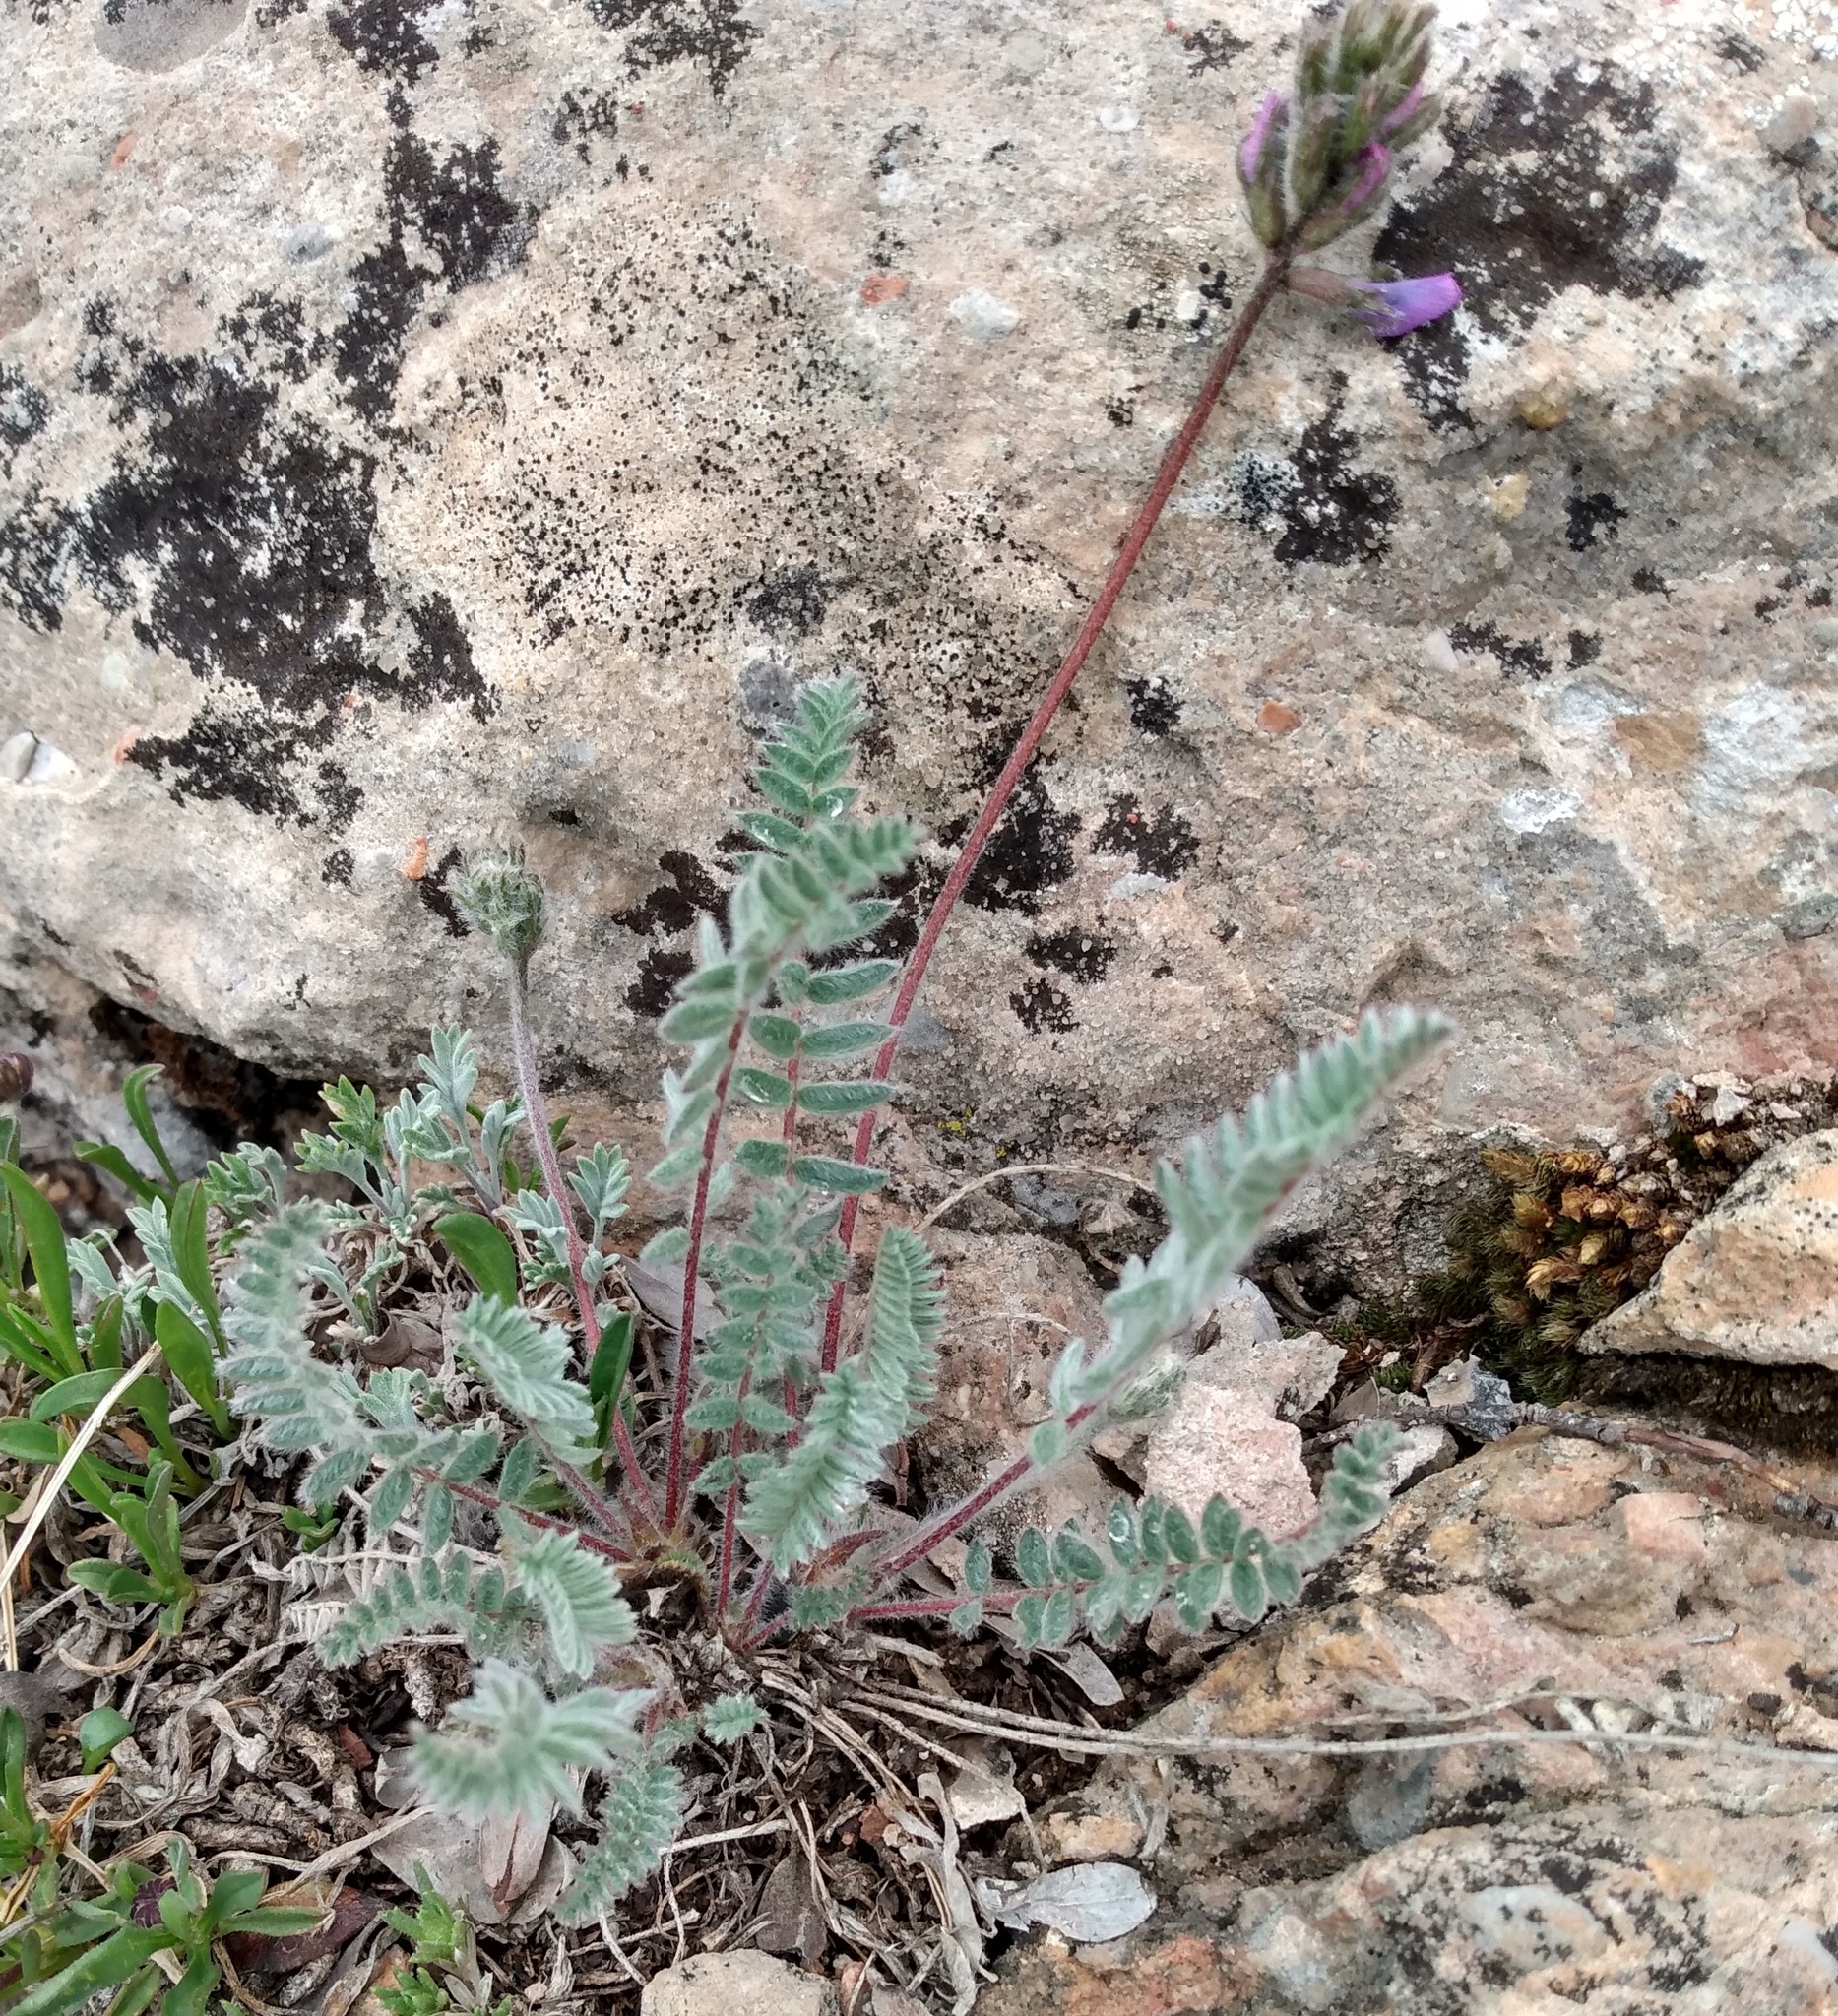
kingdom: Plantae
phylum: Tracheophyta
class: Magnoliopsida
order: Fabales
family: Fabaceae
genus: Oxytropis
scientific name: Oxytropis deflexa
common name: Stemmed oxytrope
